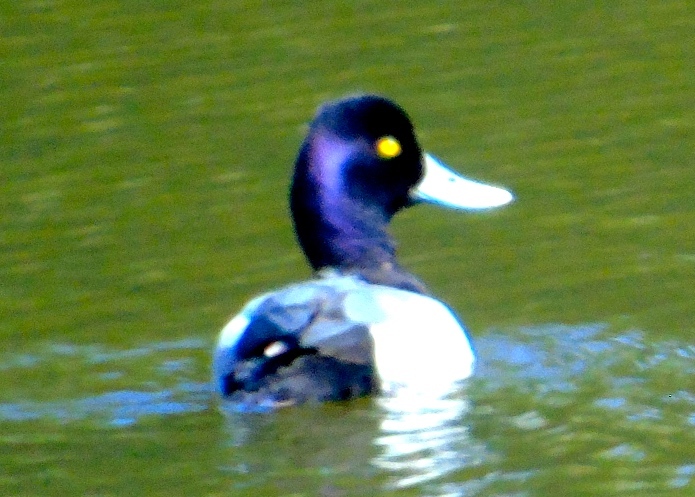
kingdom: Animalia
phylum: Chordata
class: Aves
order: Anseriformes
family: Anatidae
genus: Aythya
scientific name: Aythya marila
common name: Greater scaup
